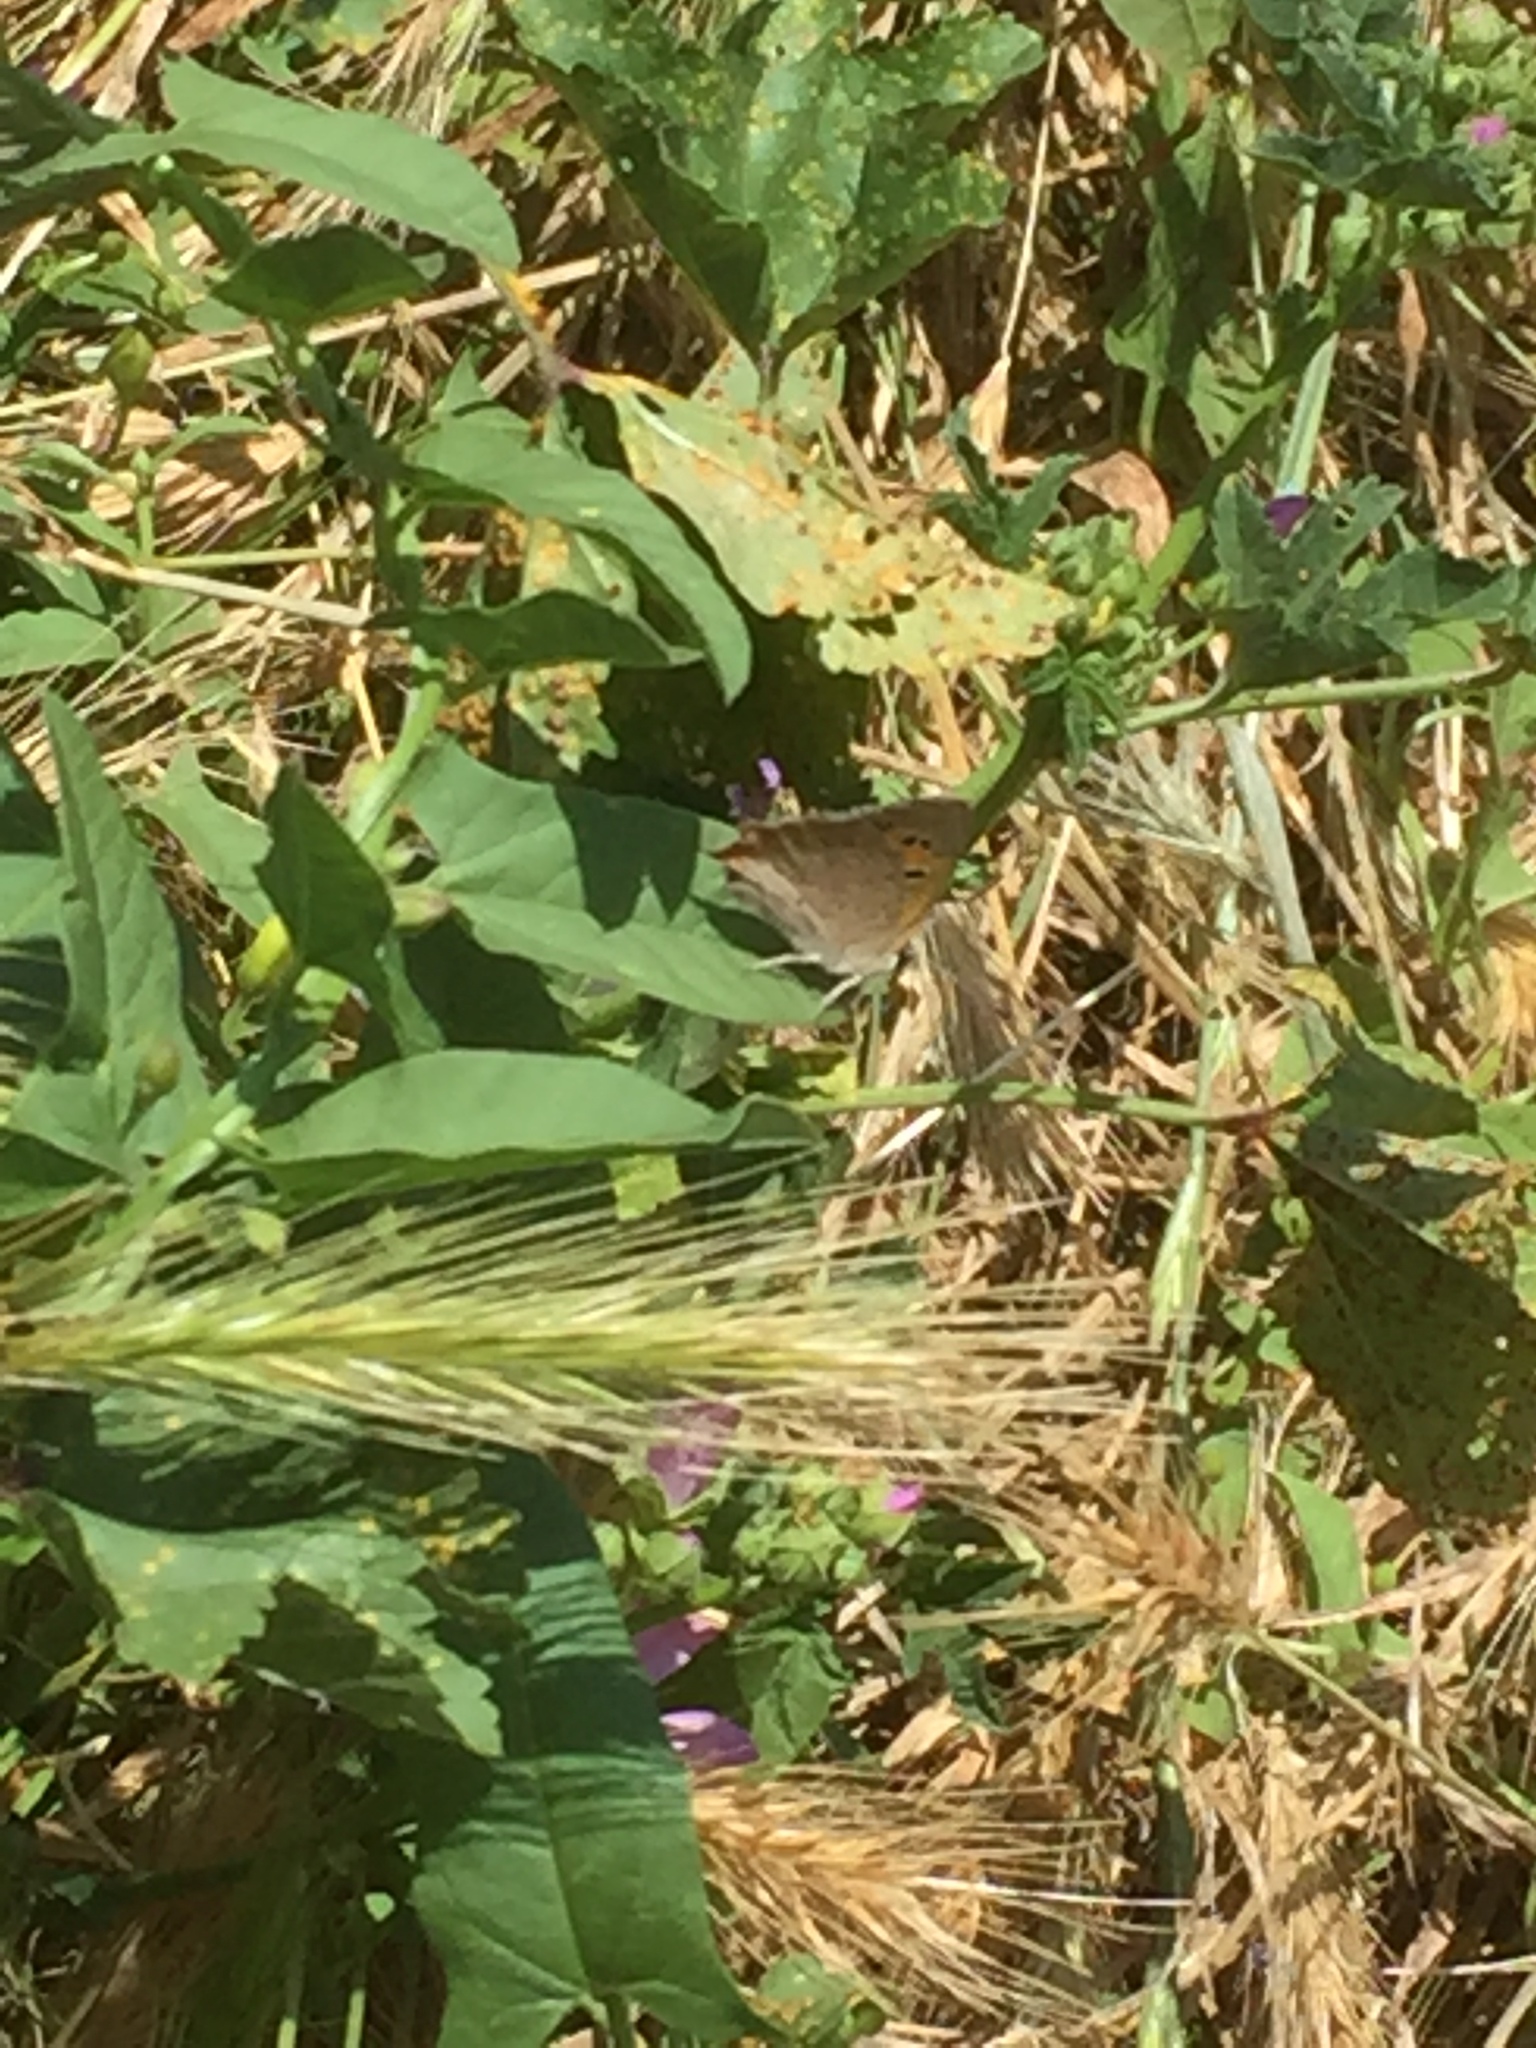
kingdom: Animalia
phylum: Arthropoda
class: Insecta
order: Lepidoptera
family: Lycaenidae
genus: Lycaena
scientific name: Lycaena phlaeas
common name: Small copper
